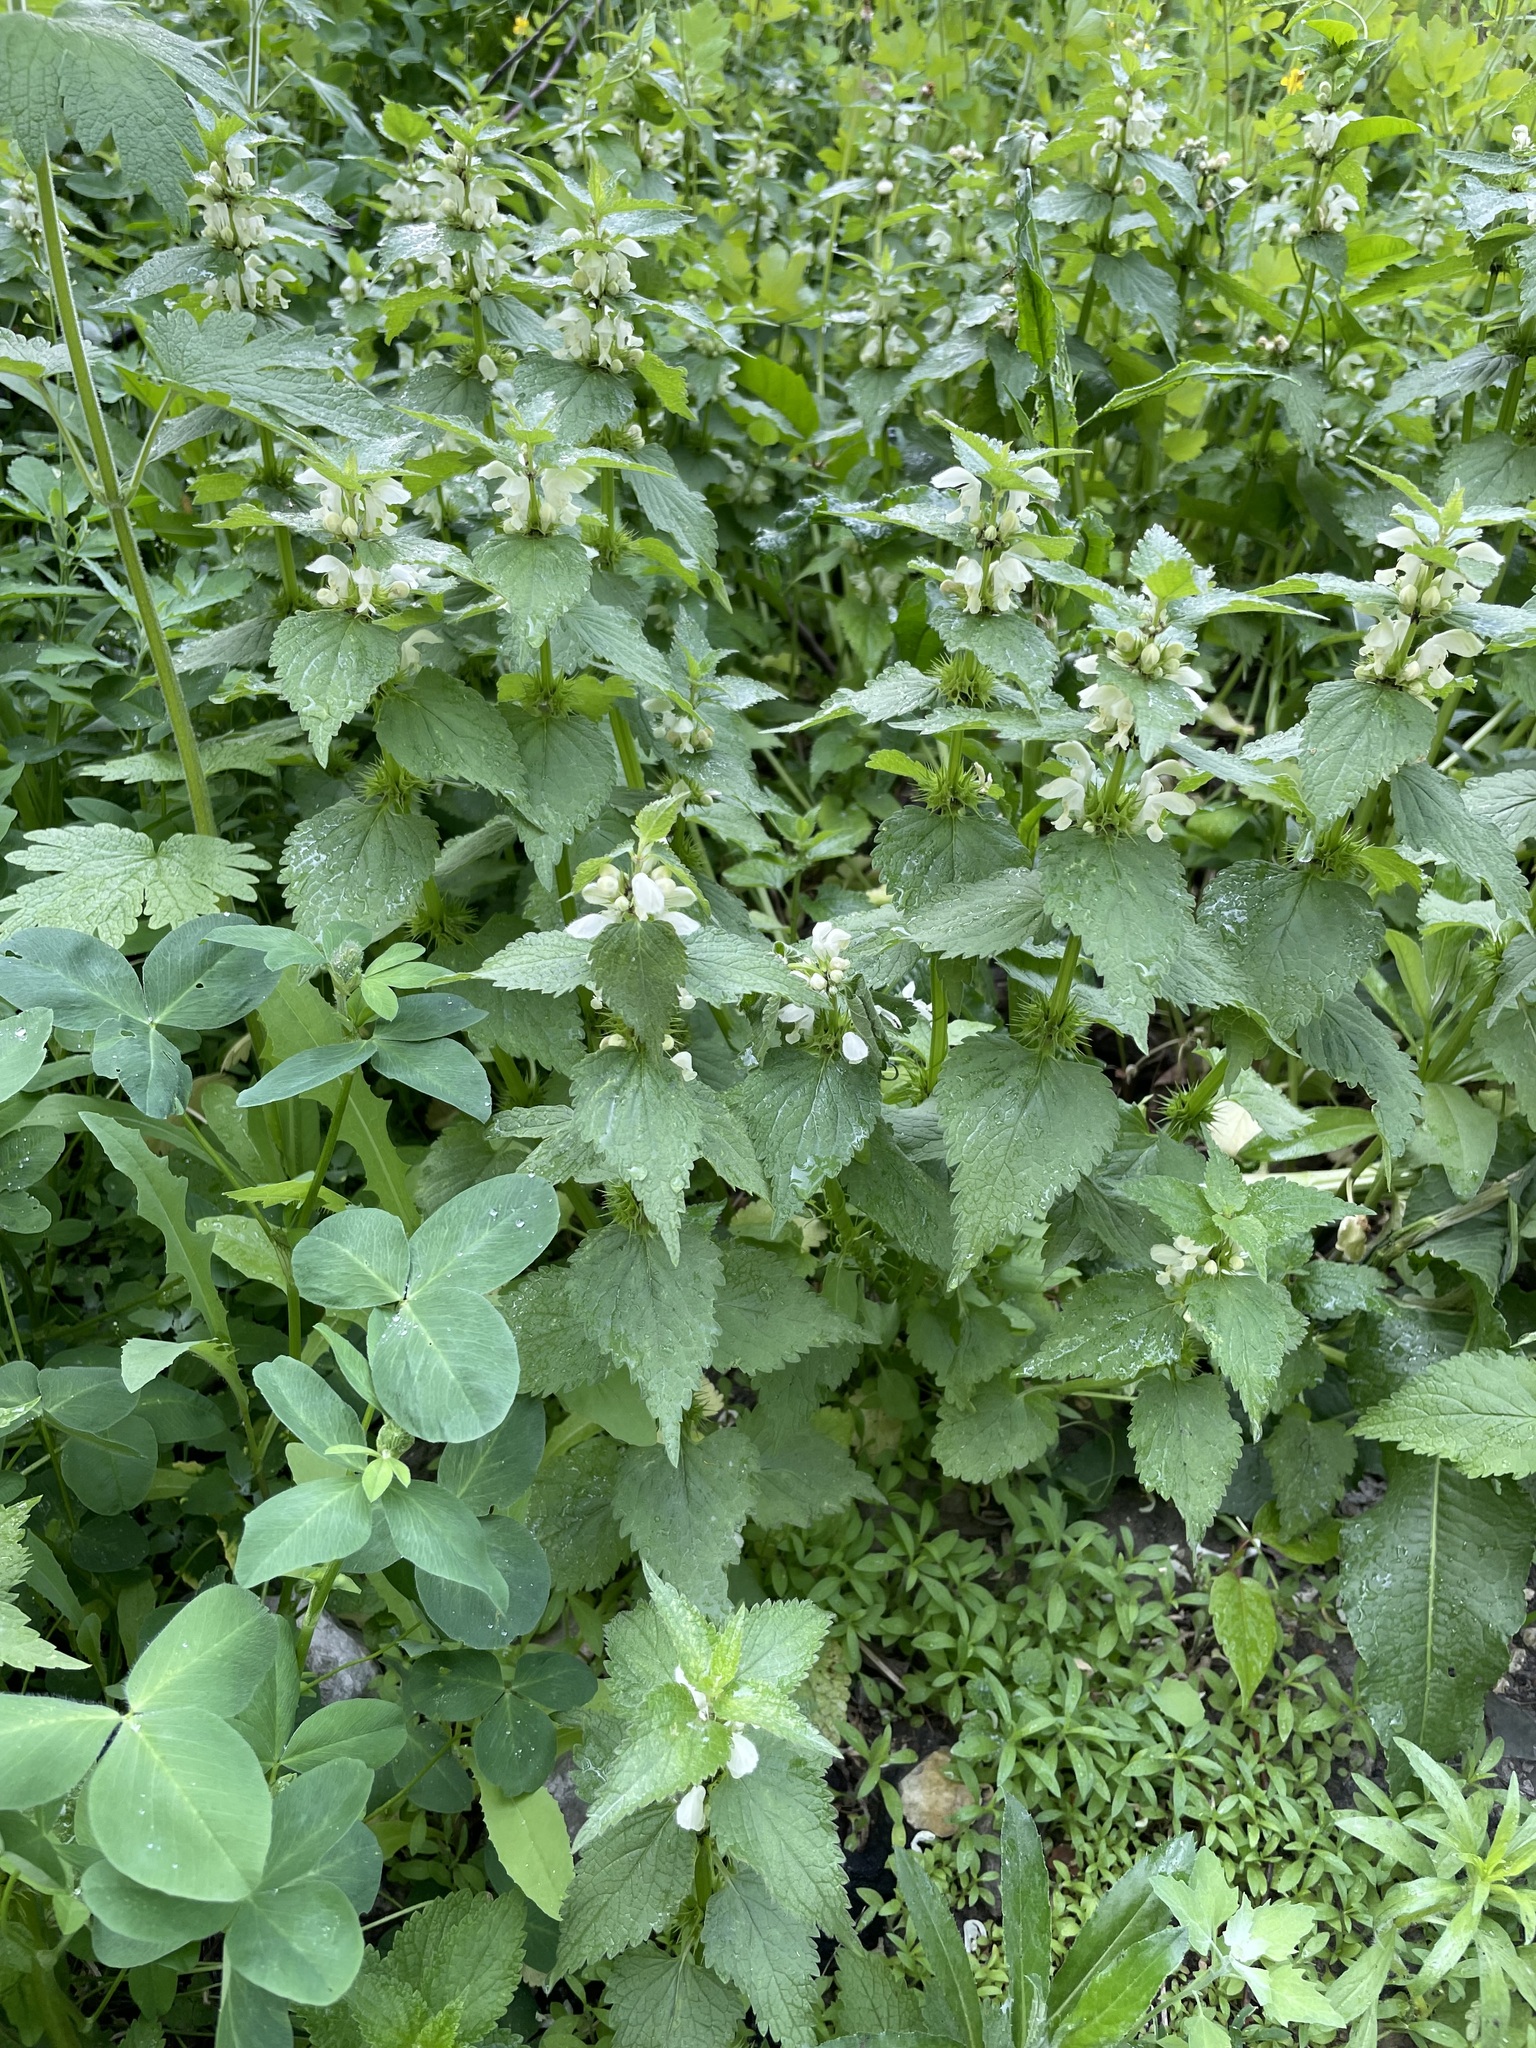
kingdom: Plantae
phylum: Tracheophyta
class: Magnoliopsida
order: Lamiales
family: Lamiaceae
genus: Lamium
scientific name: Lamium album
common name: White dead-nettle
